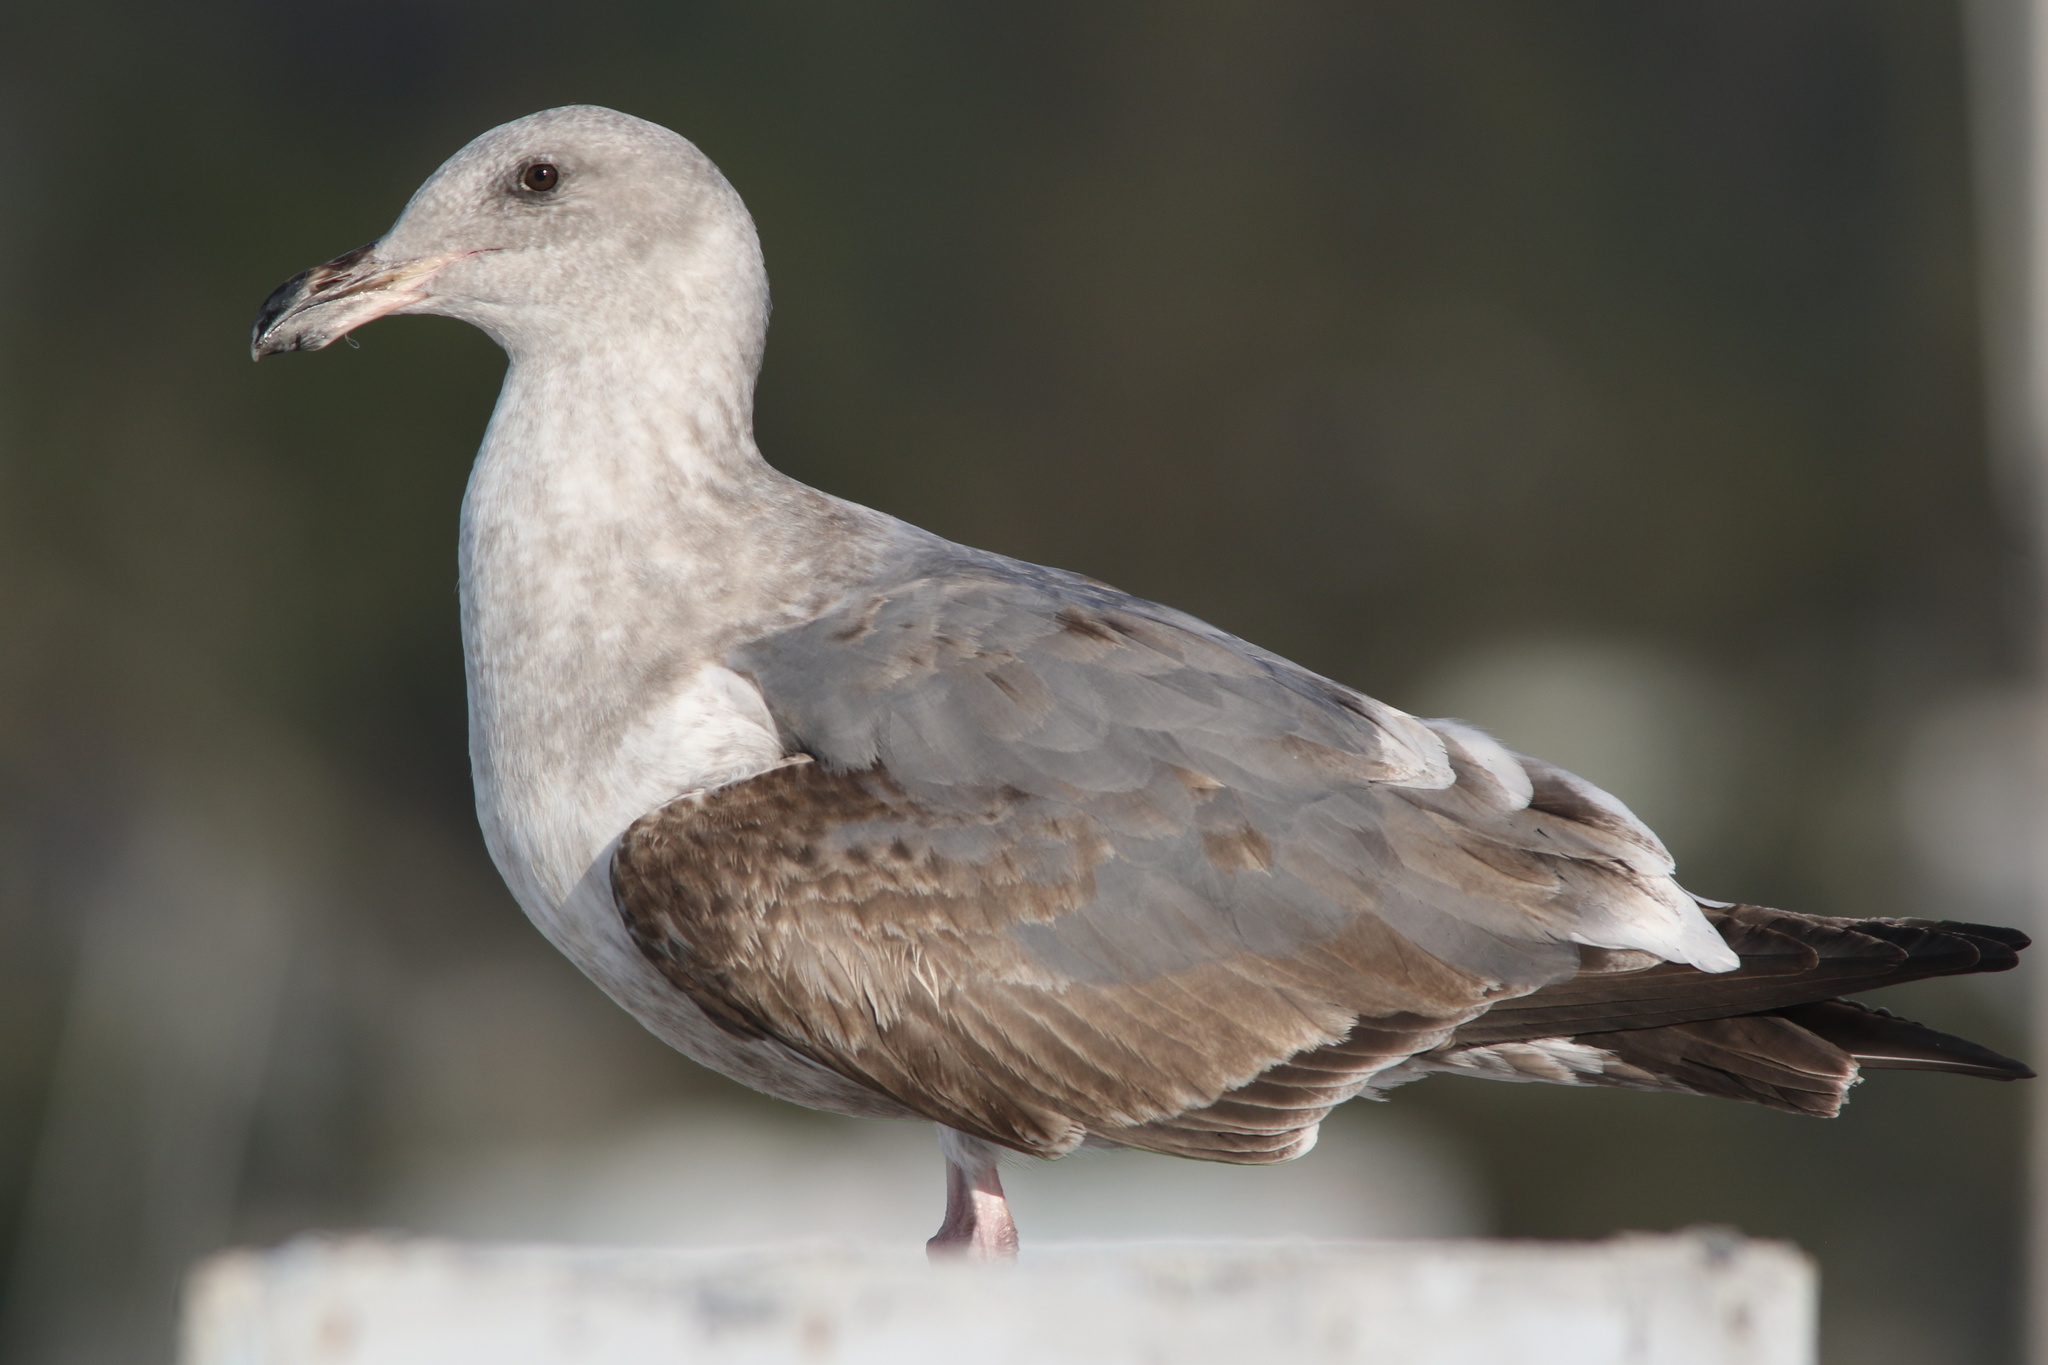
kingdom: Animalia
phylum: Chordata
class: Aves
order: Charadriiformes
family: Laridae
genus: Larus
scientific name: Larus occidentalis
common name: Western gull
